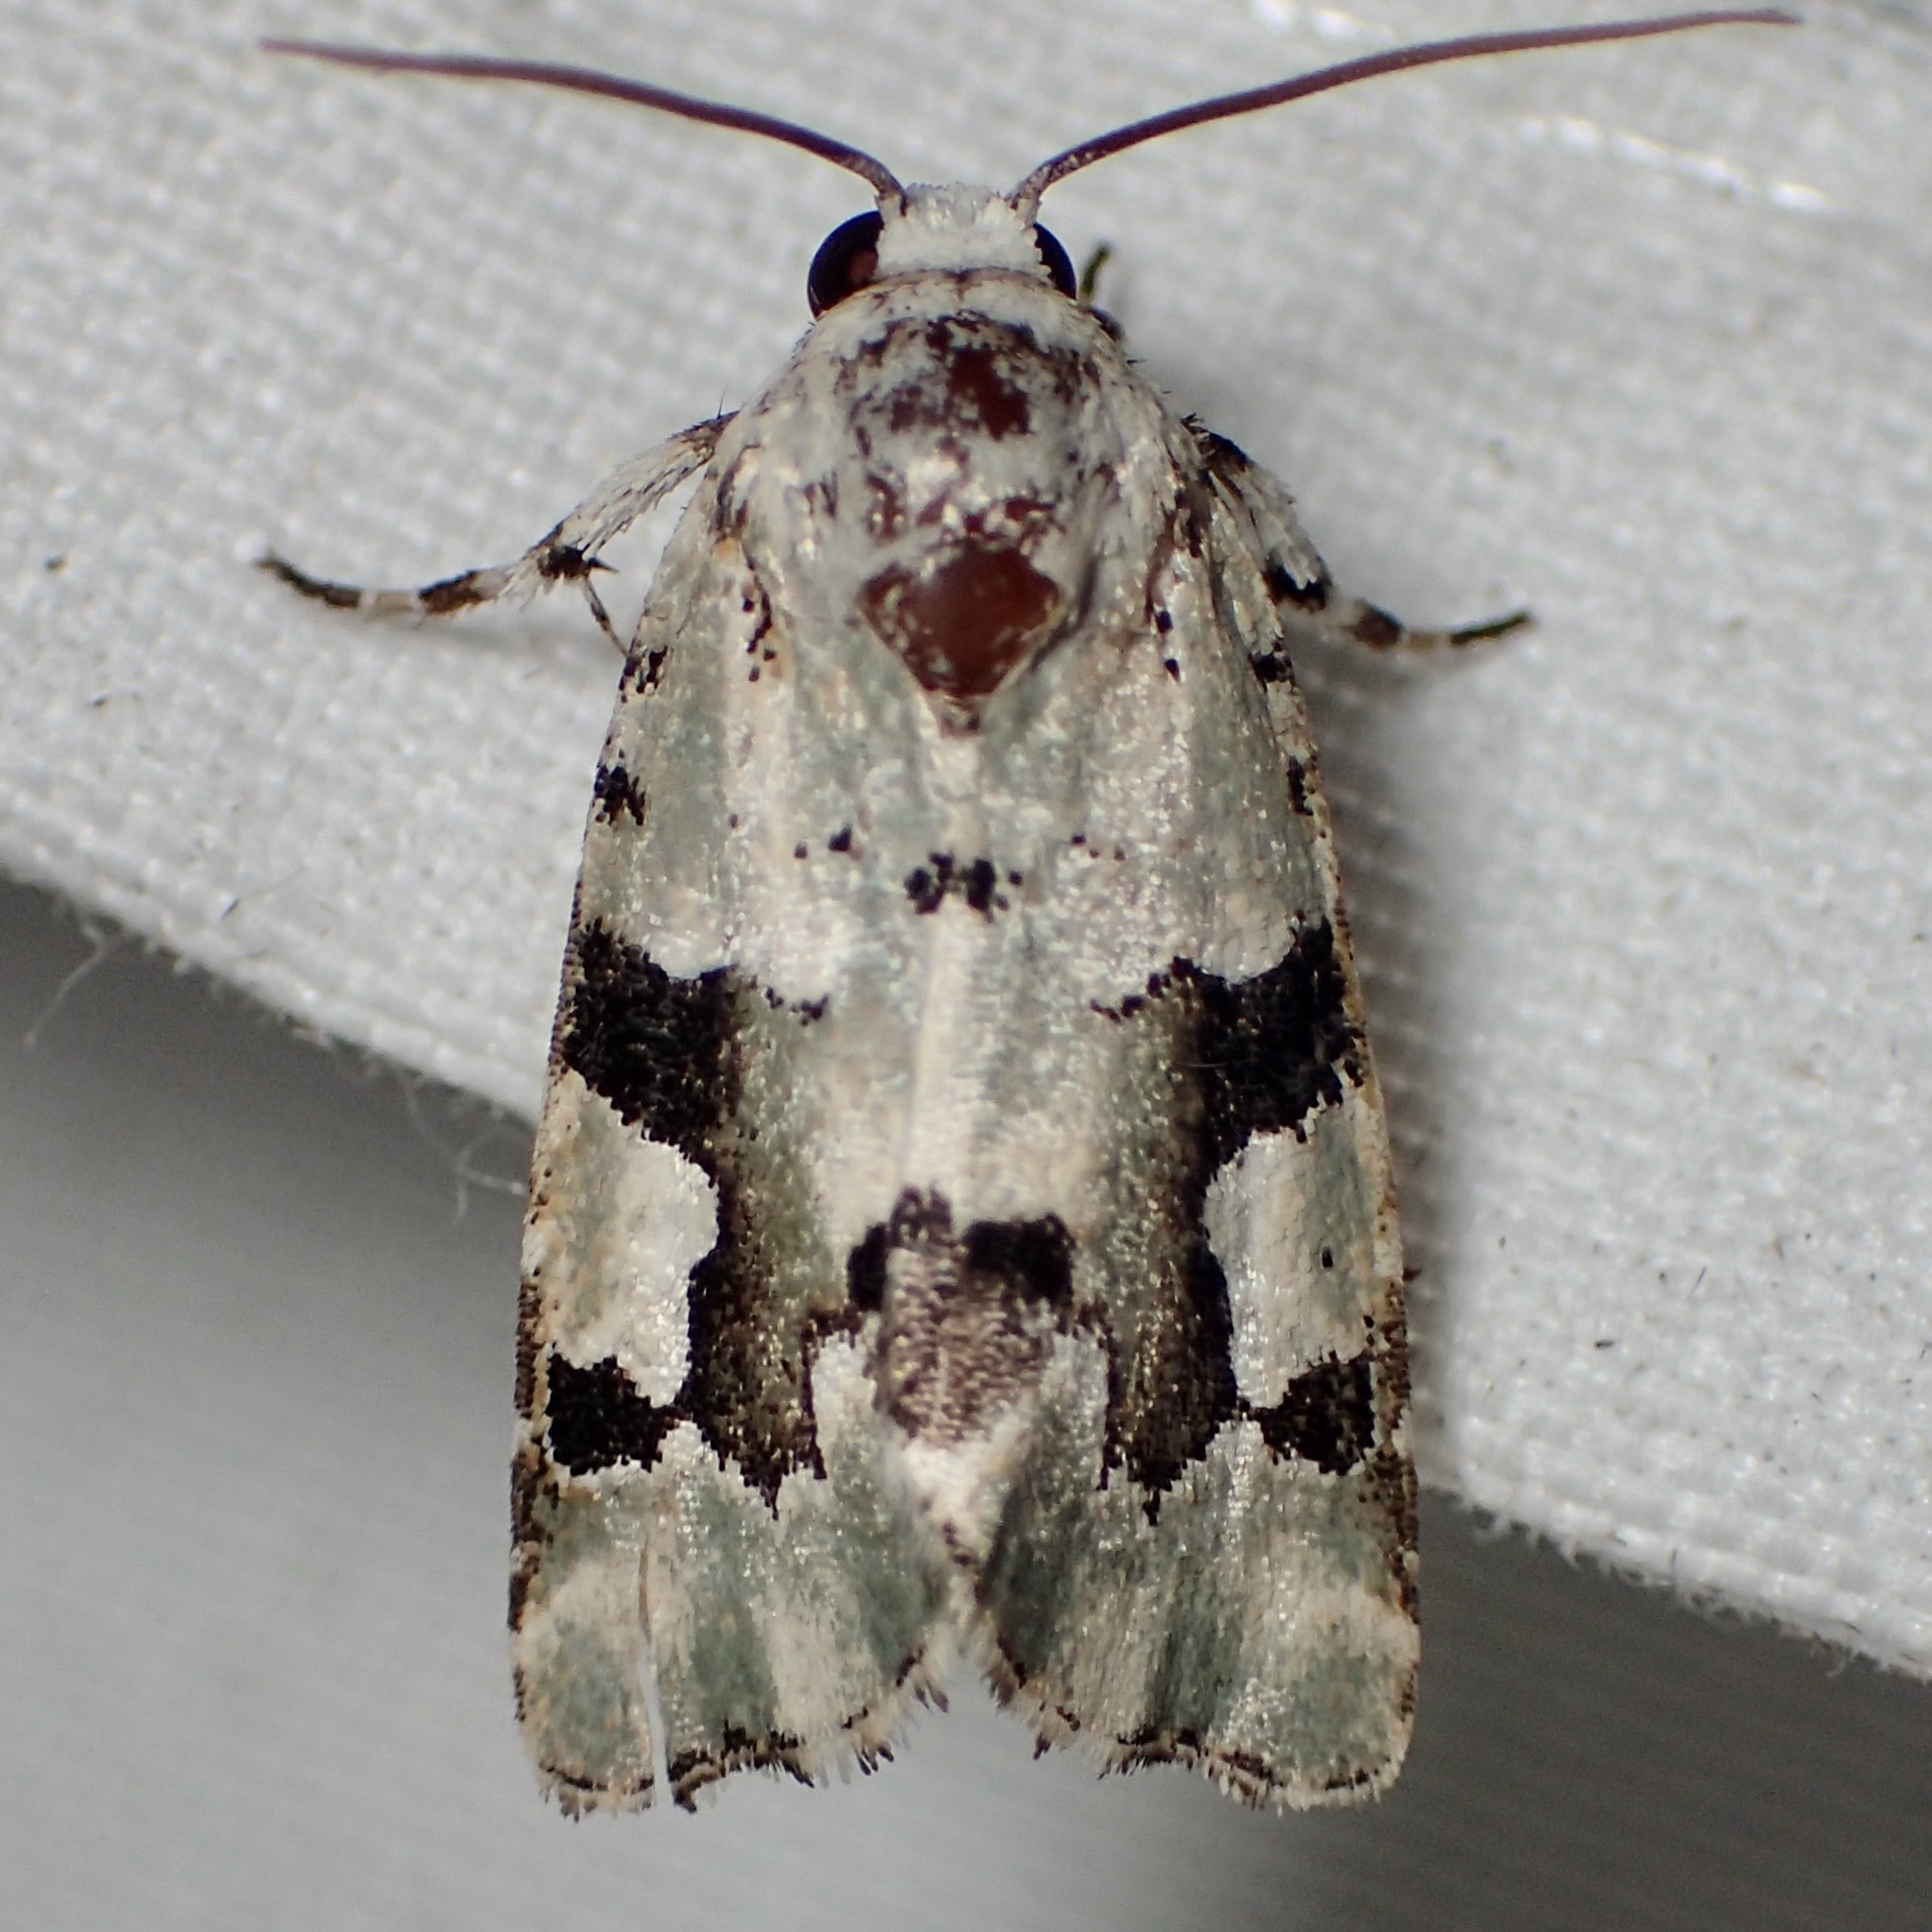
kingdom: Animalia
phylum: Arthropoda
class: Insecta
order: Lepidoptera
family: Noctuidae
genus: Emarginea
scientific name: Emarginea percara
